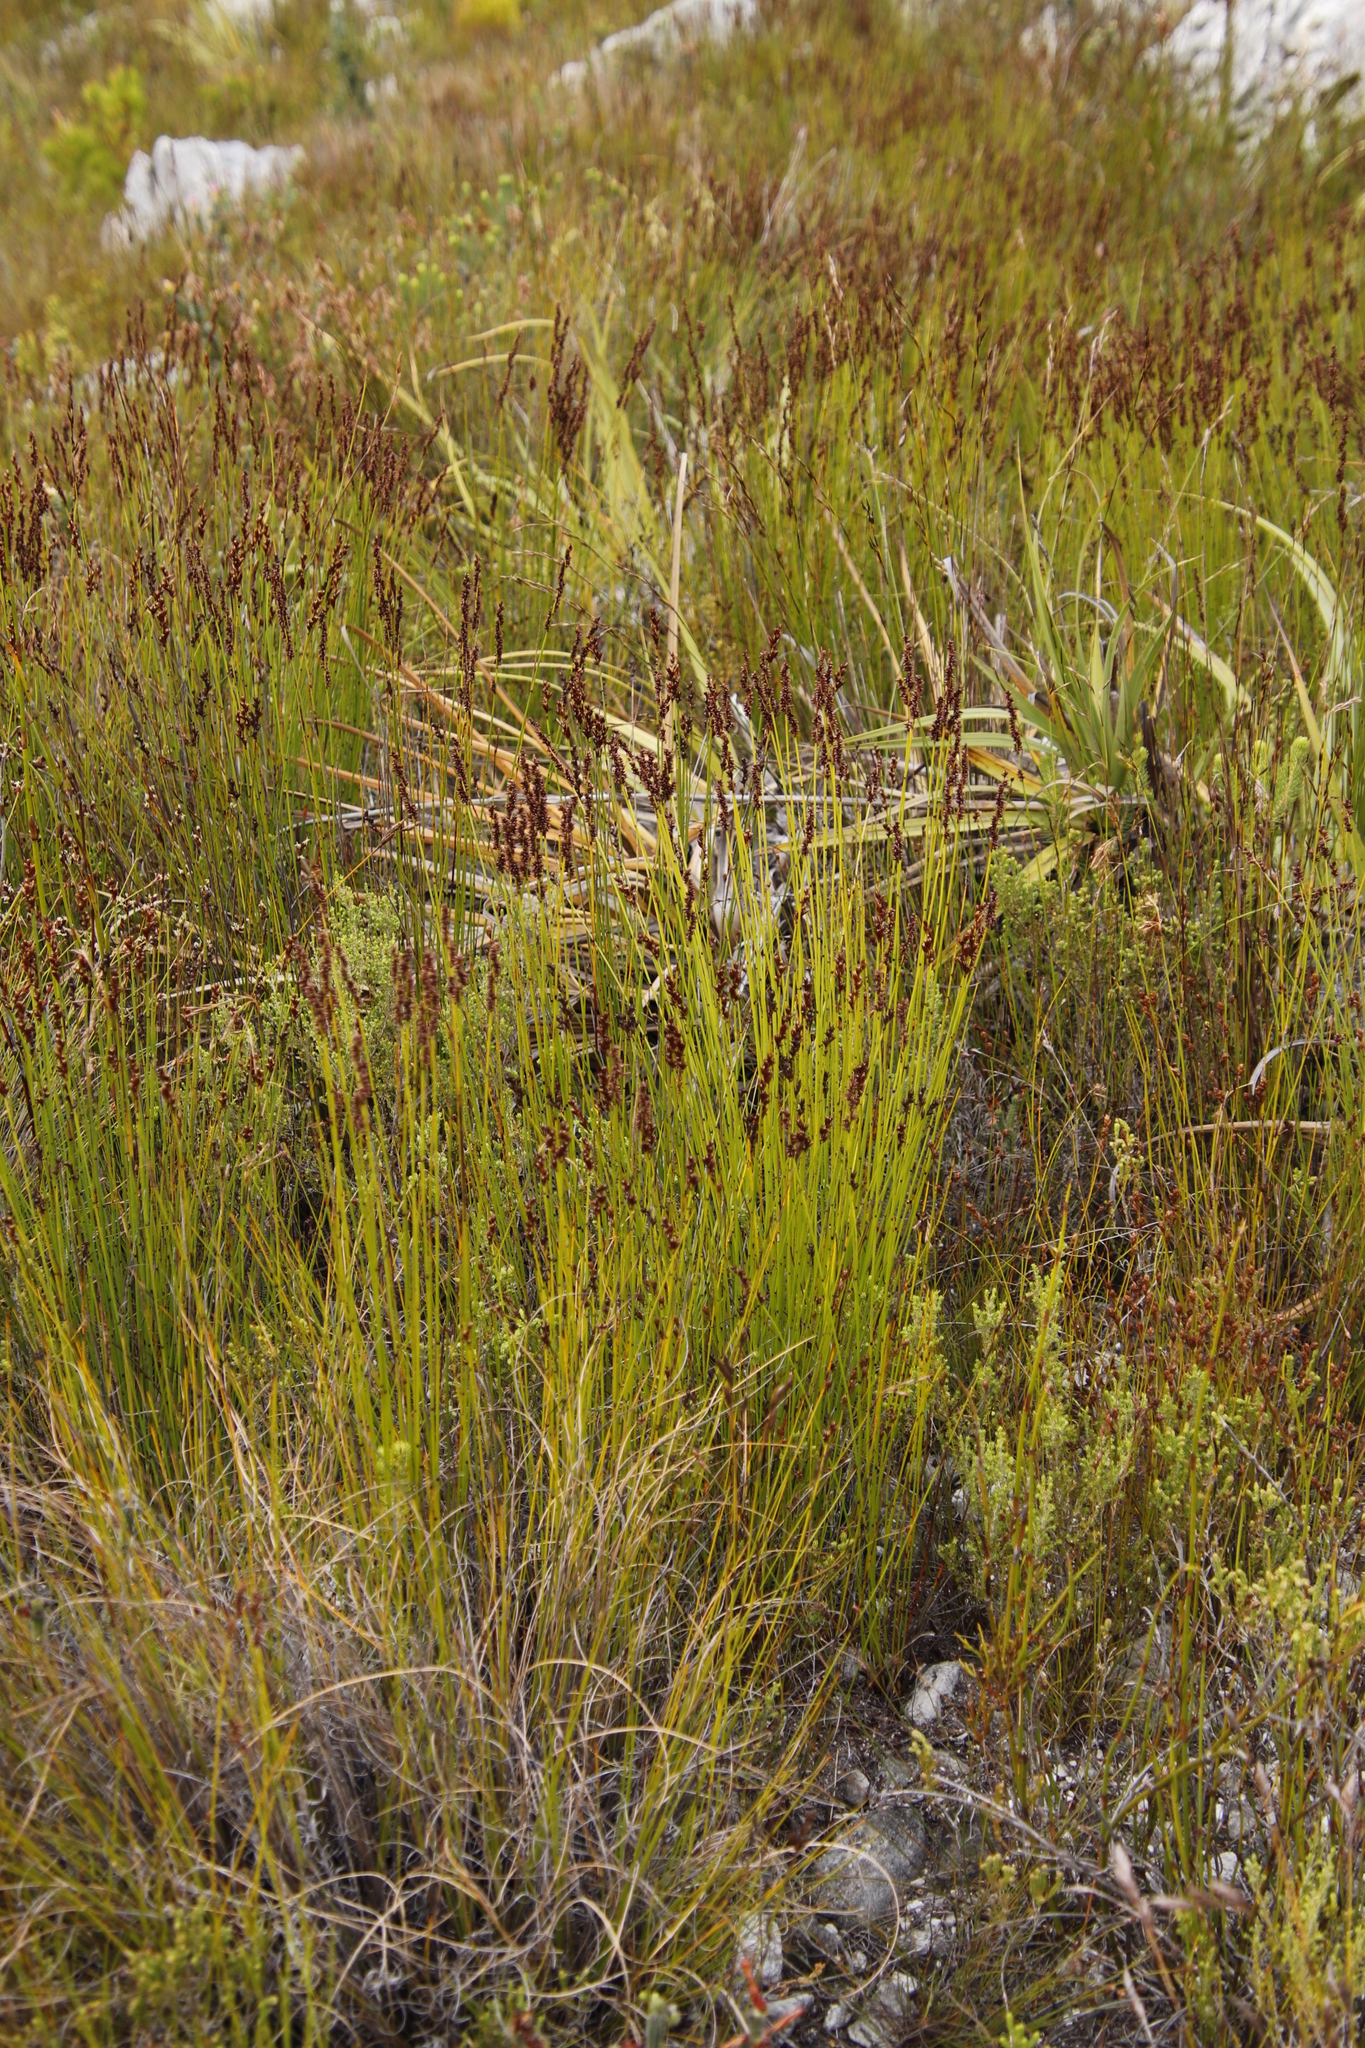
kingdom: Plantae
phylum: Tracheophyta
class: Liliopsida
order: Poales
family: Restionaceae
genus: Elegia
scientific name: Elegia hookeriana
